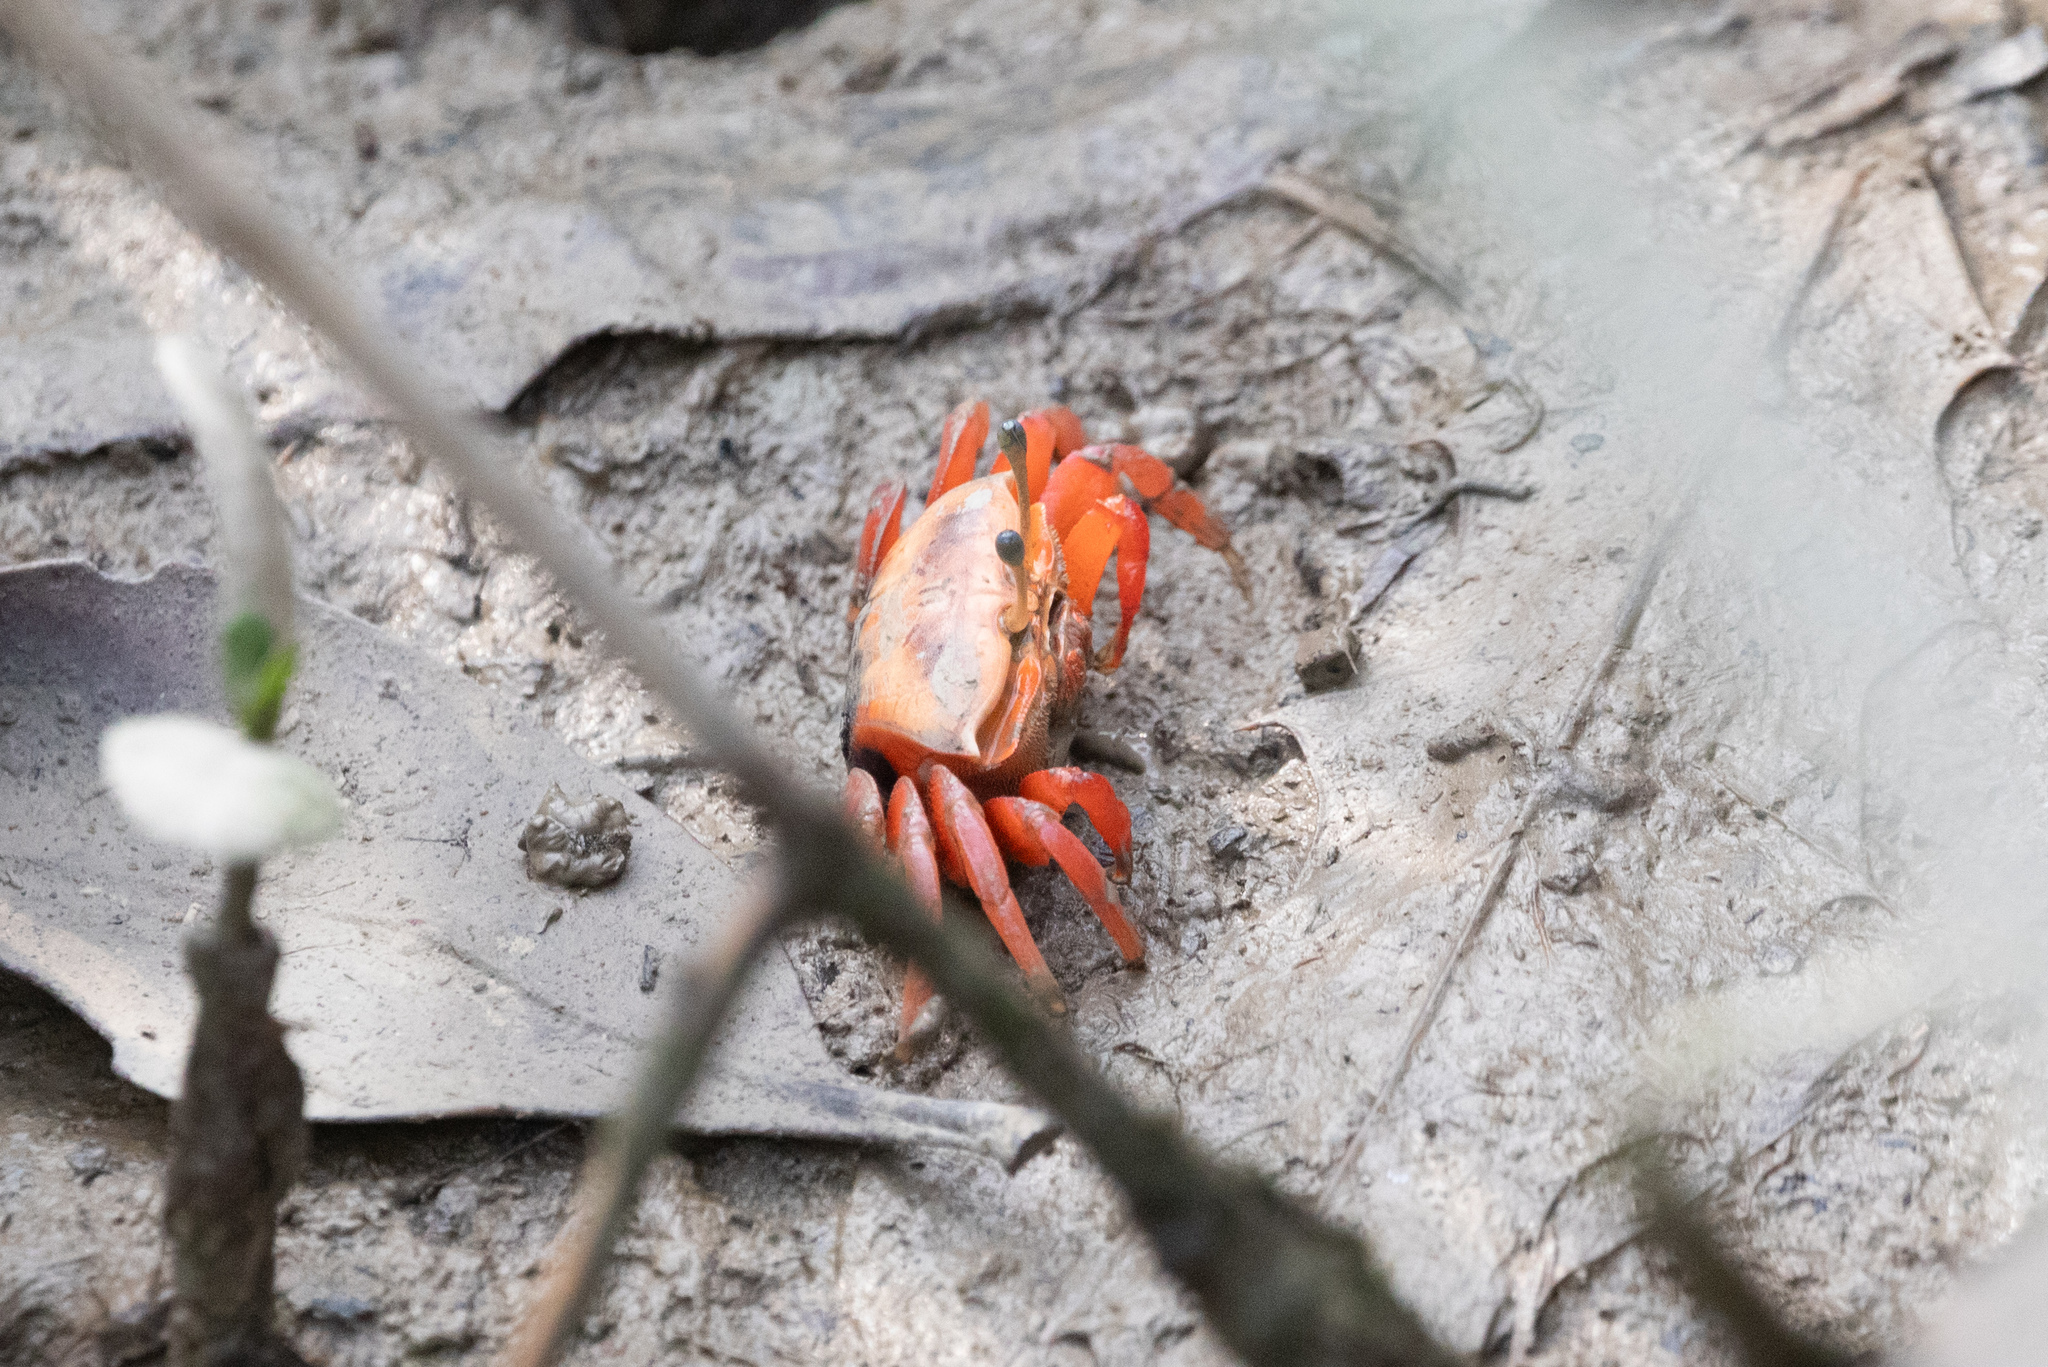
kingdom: Animalia
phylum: Arthropoda
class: Malacostraca
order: Decapoda
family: Ocypodidae
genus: Tubuca
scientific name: Tubuca arcuata
